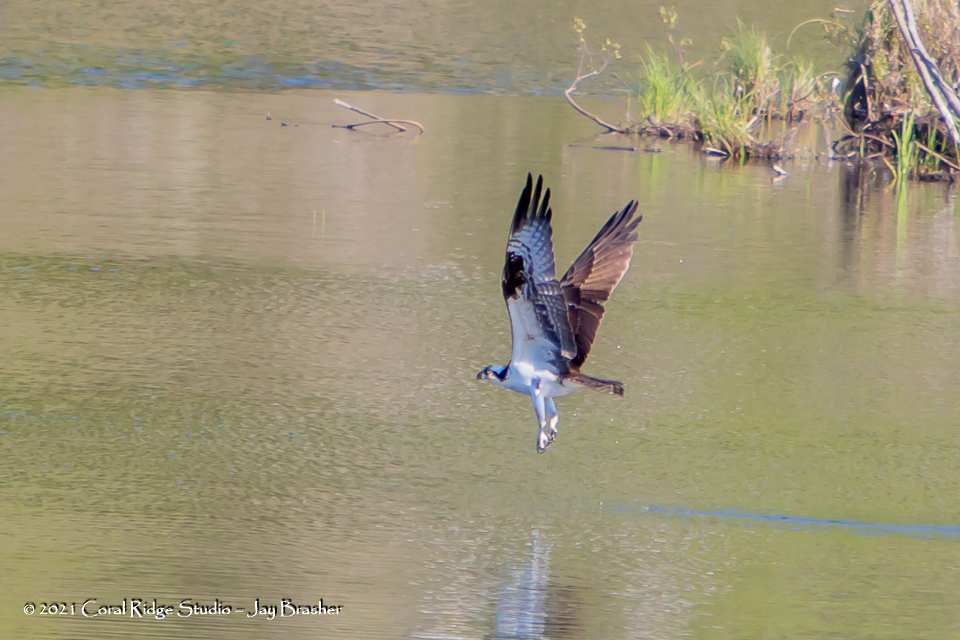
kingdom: Animalia
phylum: Chordata
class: Aves
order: Accipitriformes
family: Pandionidae
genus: Pandion
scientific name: Pandion haliaetus
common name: Osprey
